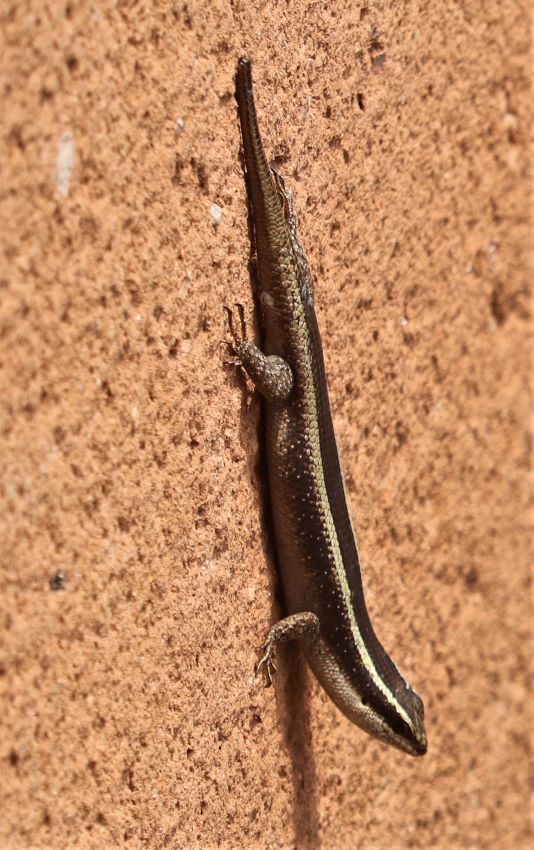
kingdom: Animalia
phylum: Chordata
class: Squamata
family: Scincidae
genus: Trachylepis
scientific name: Trachylepis striata
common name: African striped mabuya
